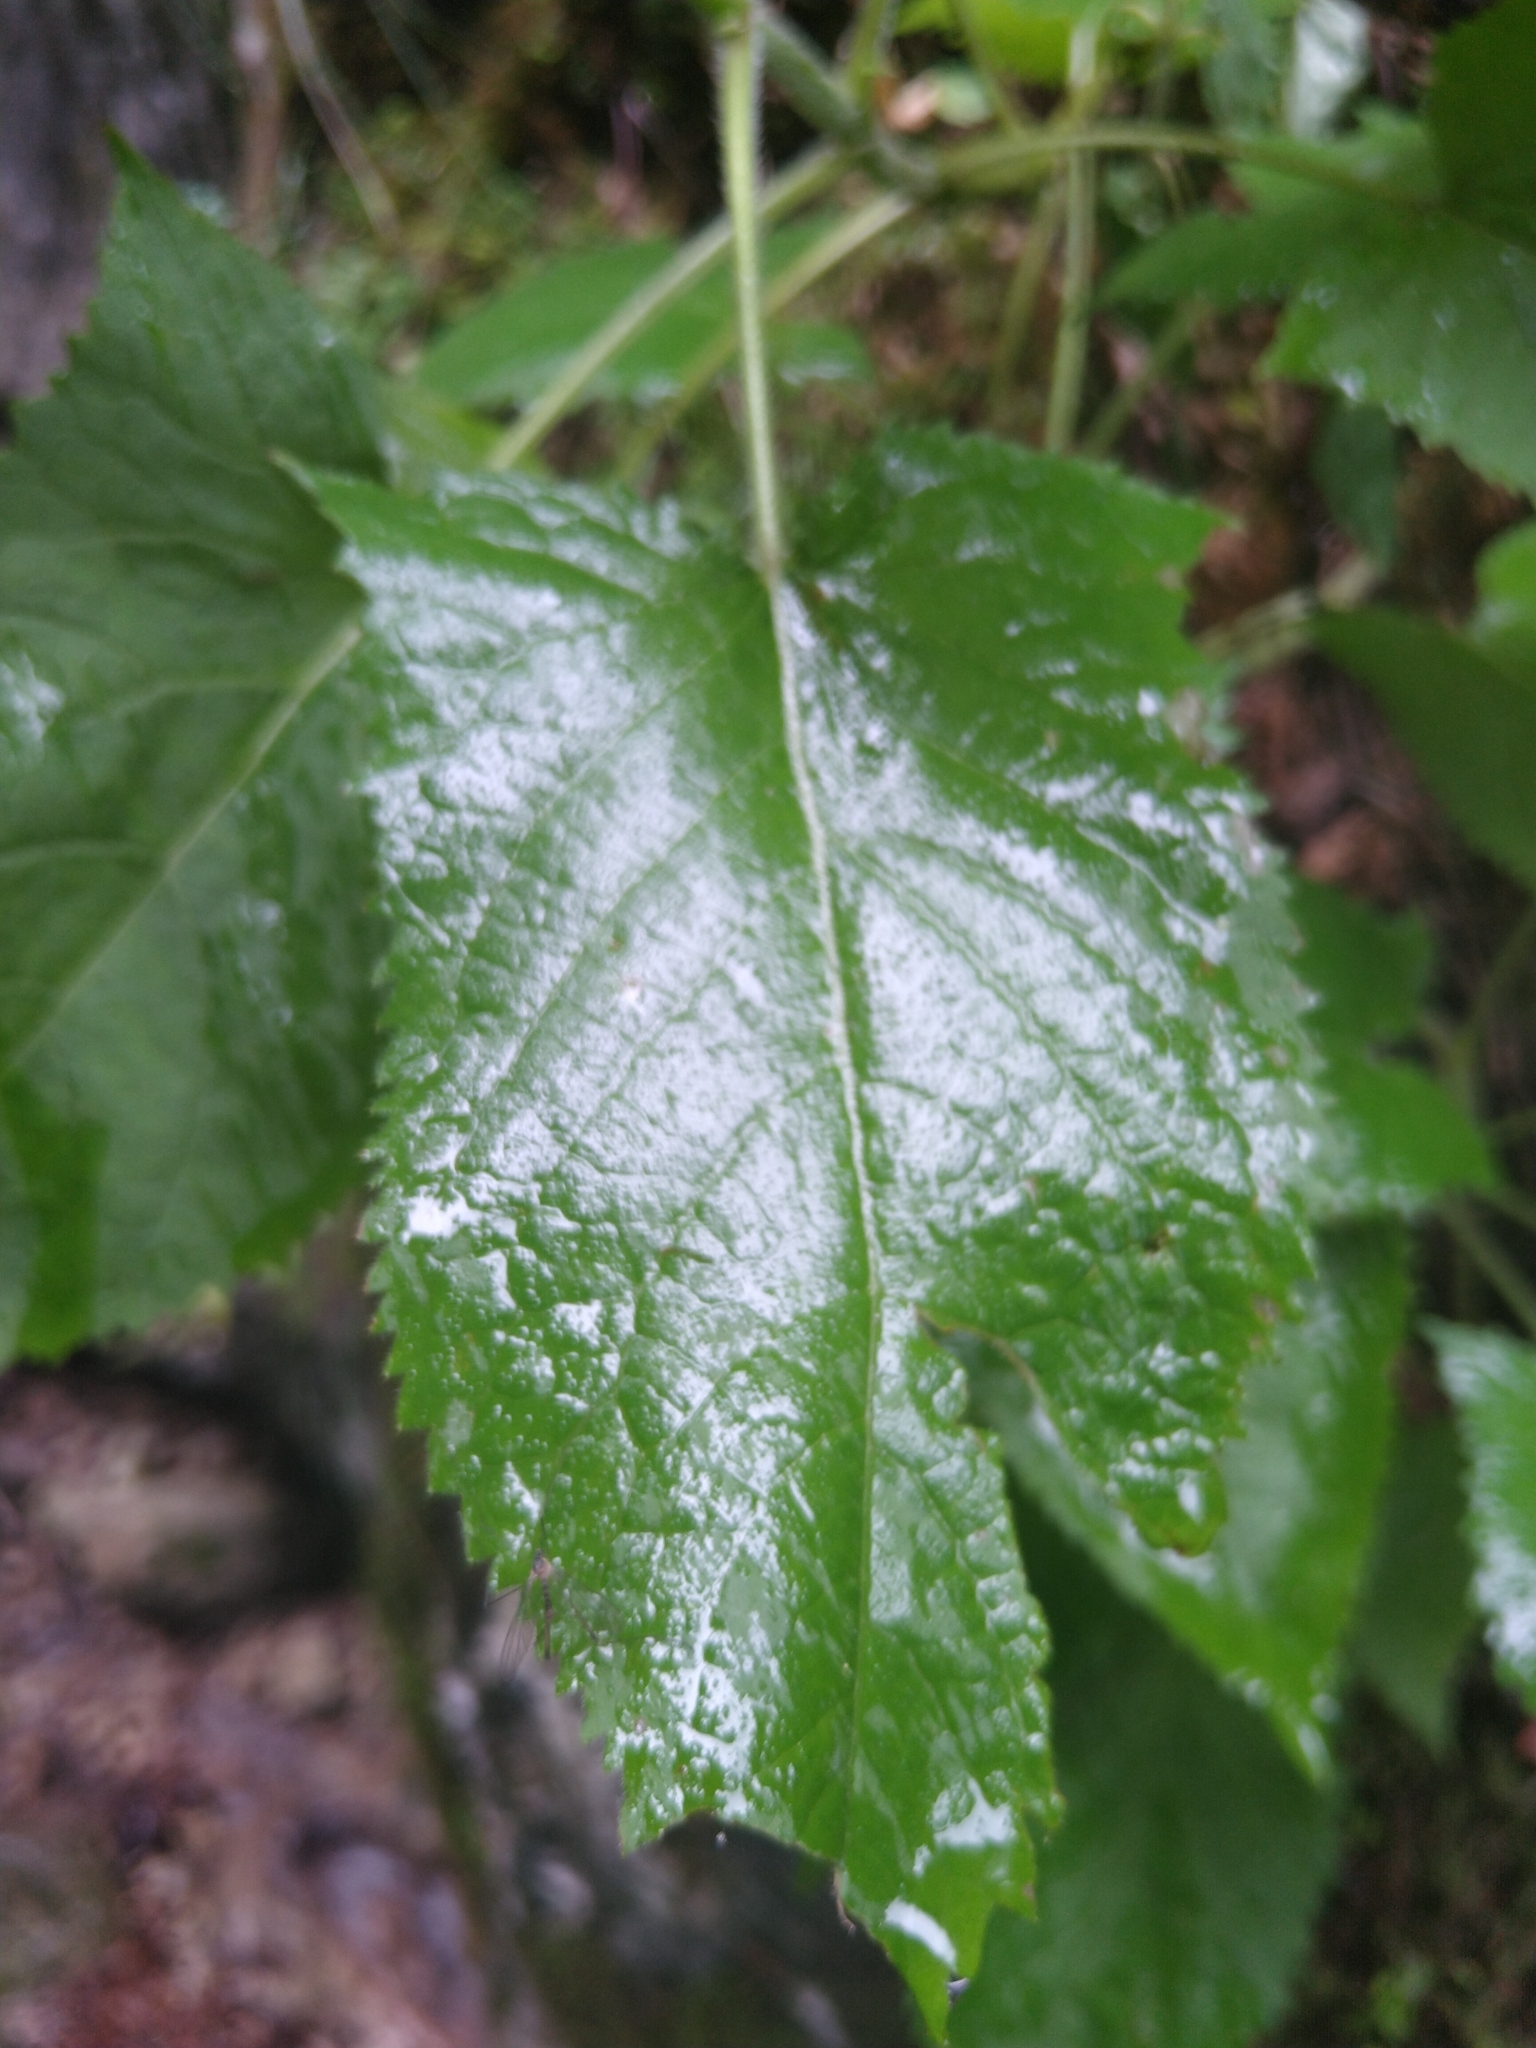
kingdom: Plantae
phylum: Tracheophyta
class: Magnoliopsida
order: Lamiales
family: Lamiaceae
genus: Salvia
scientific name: Salvia glutinosa
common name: Sticky clary
